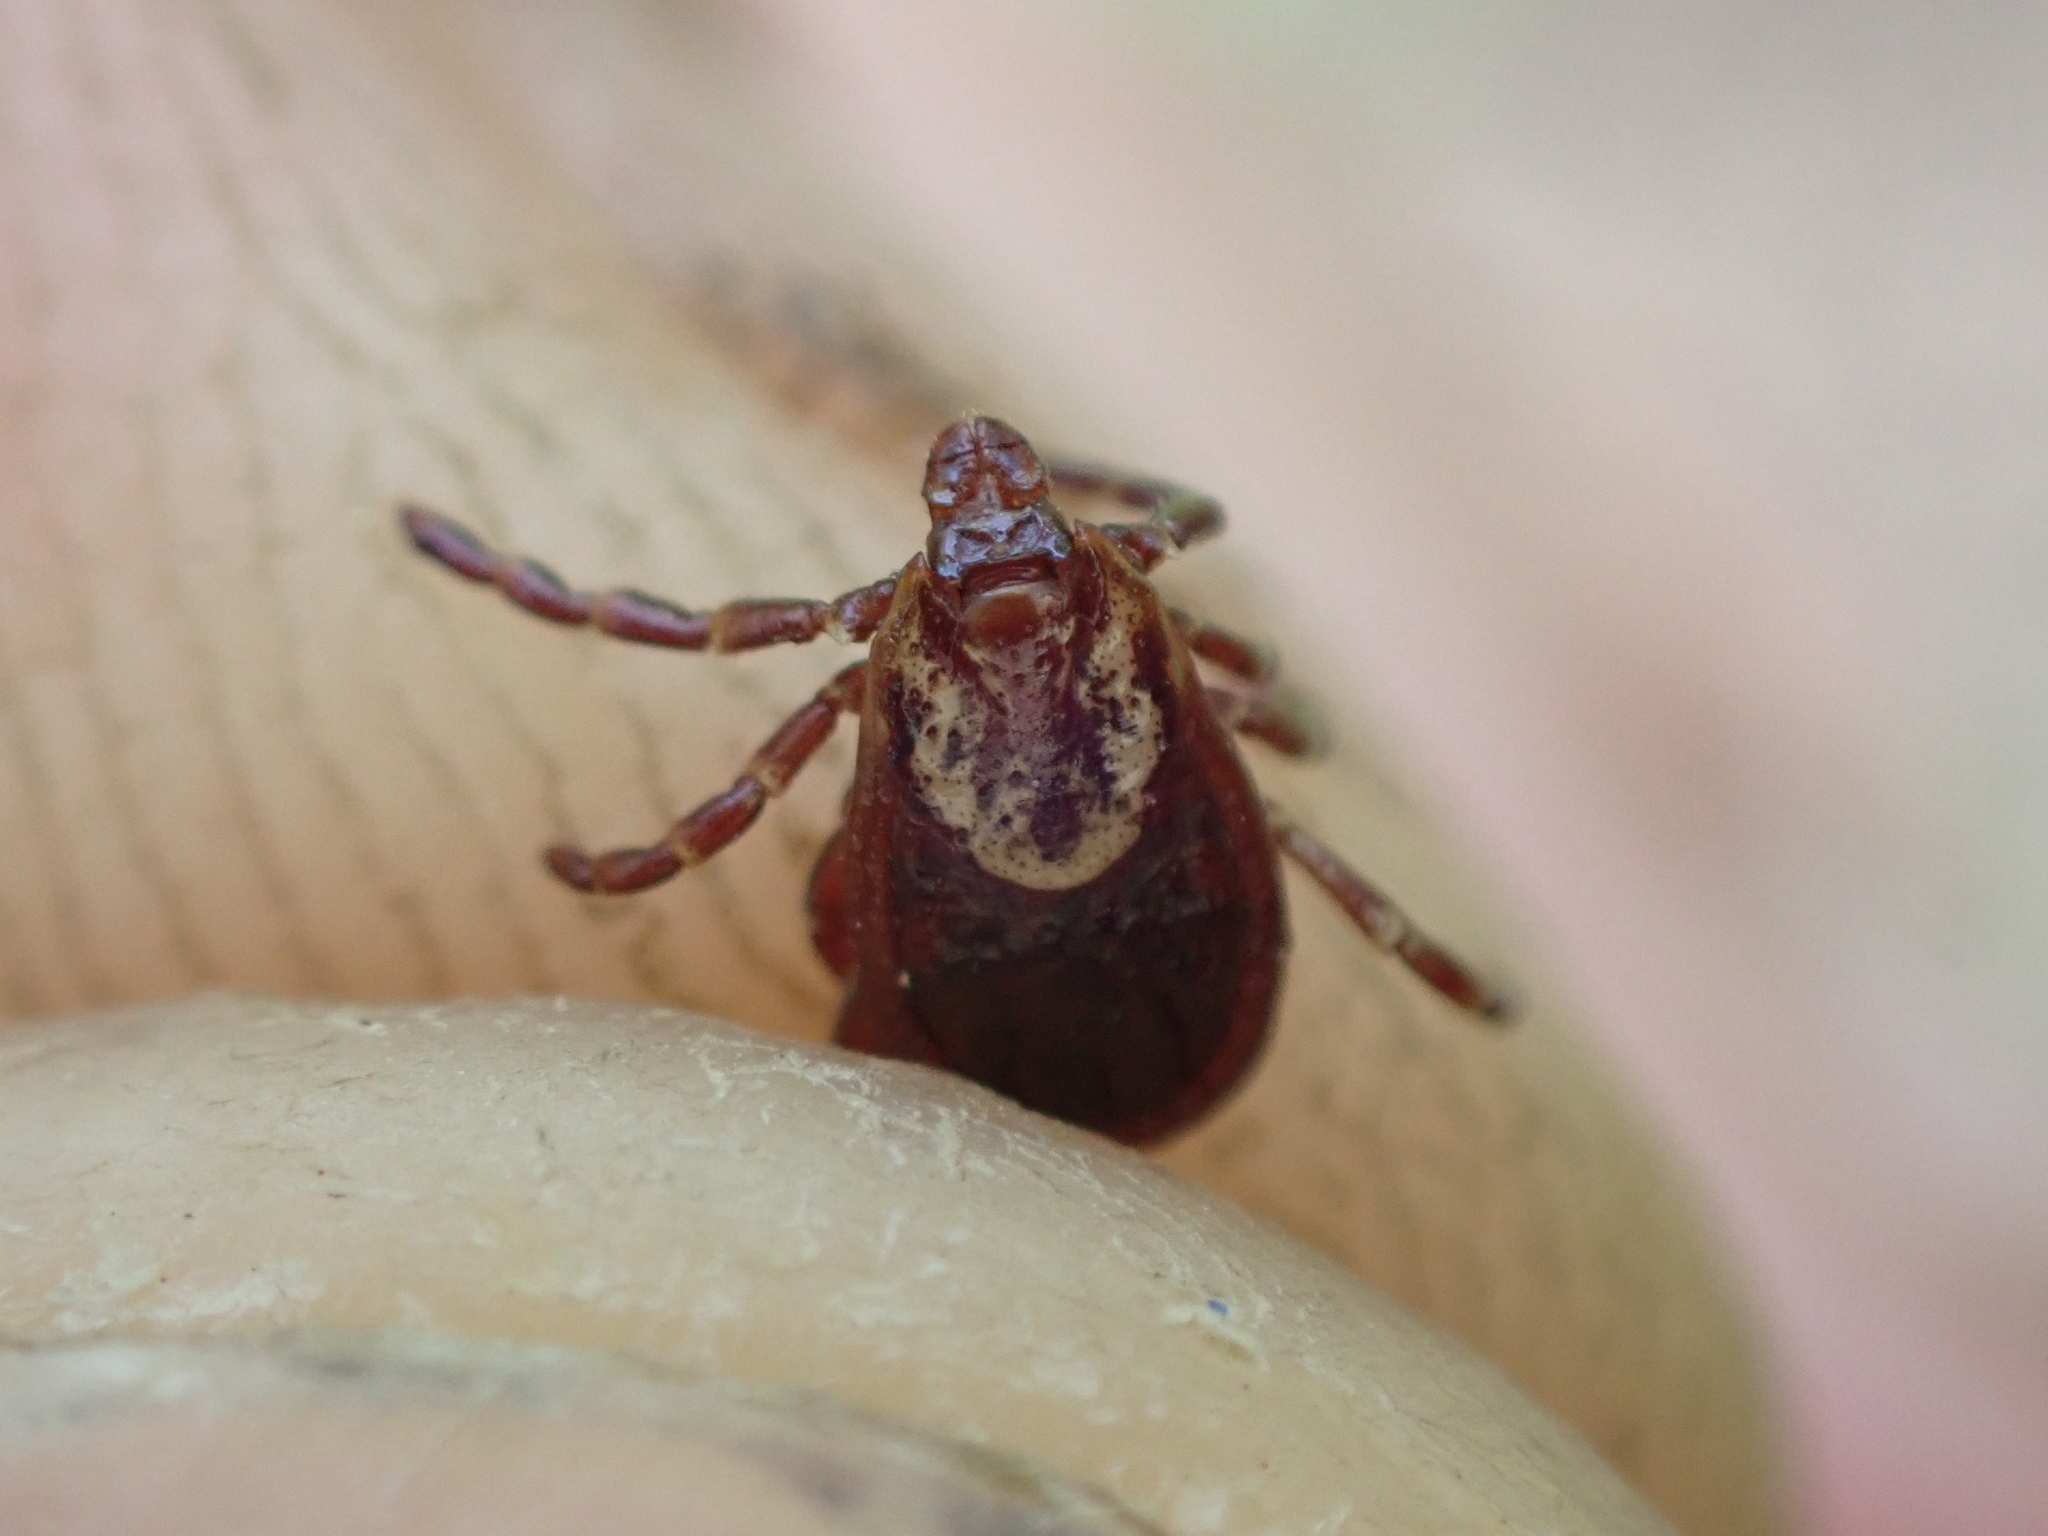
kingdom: Animalia
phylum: Arthropoda
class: Arachnida
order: Ixodida
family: Ixodidae
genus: Dermacentor
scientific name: Dermacentor variabilis
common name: American dog tick
